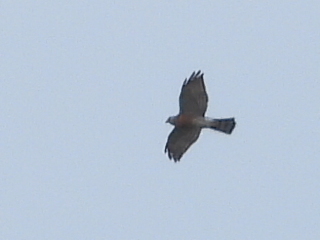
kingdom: Animalia
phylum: Chordata
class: Aves
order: Accipitriformes
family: Accipitridae
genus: Accipiter
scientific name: Accipiter soloensis
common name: Chinese sparrowhawk
